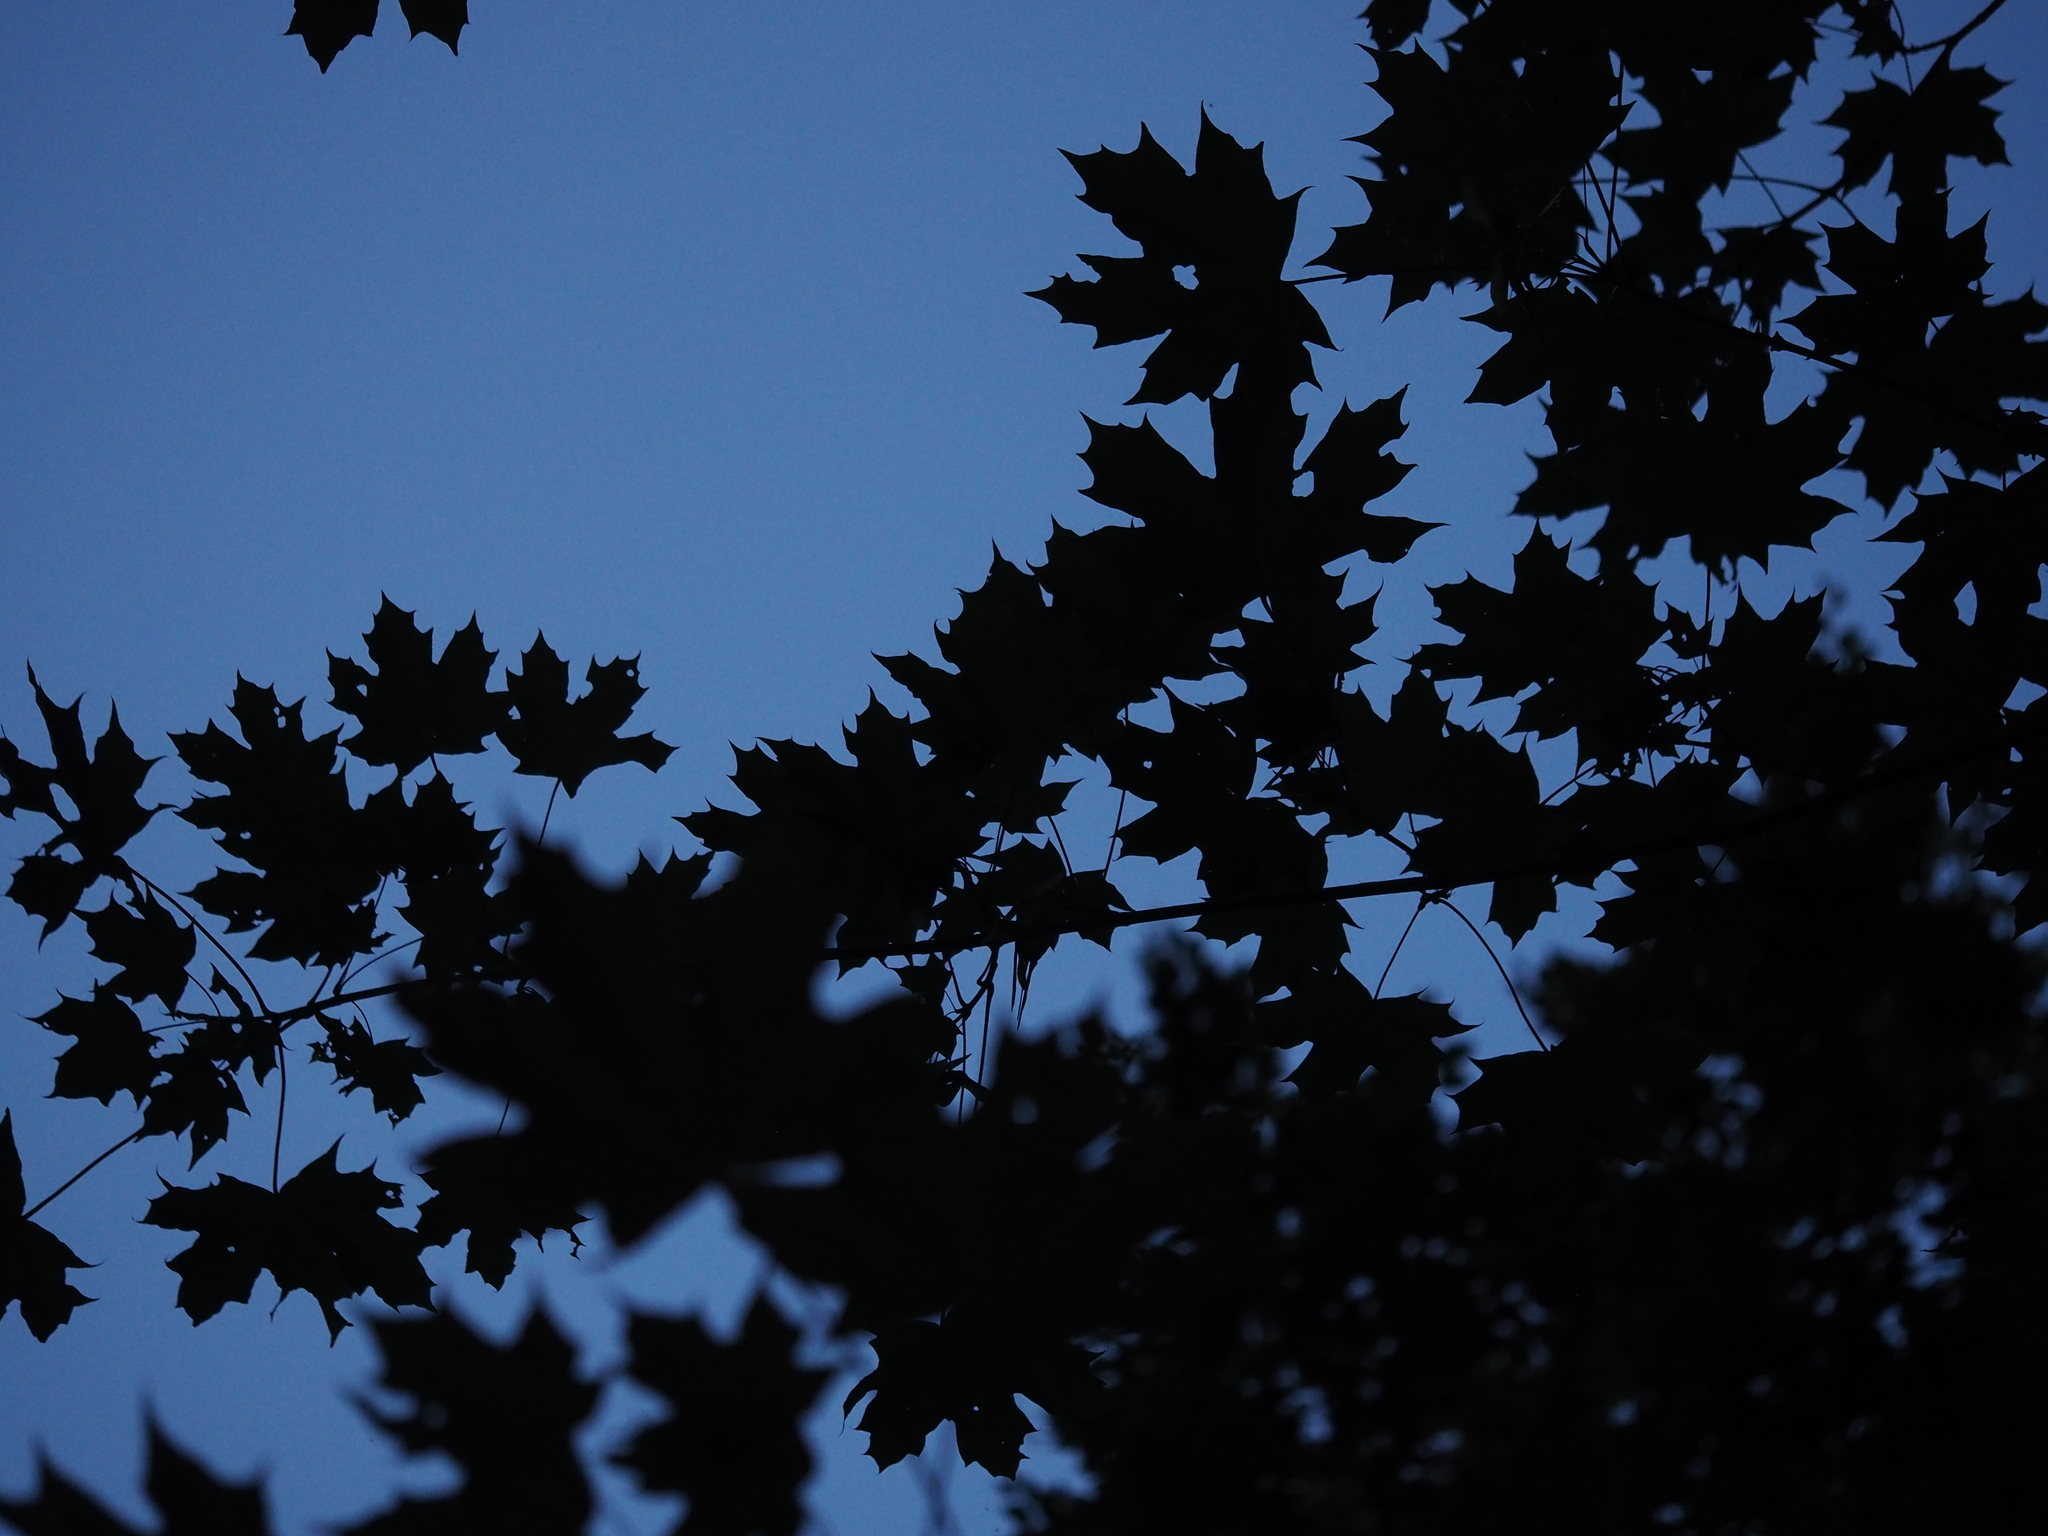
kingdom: Plantae
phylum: Tracheophyta
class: Magnoliopsida
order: Sapindales
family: Sapindaceae
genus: Acer
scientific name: Acer platanoides
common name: Norway maple
